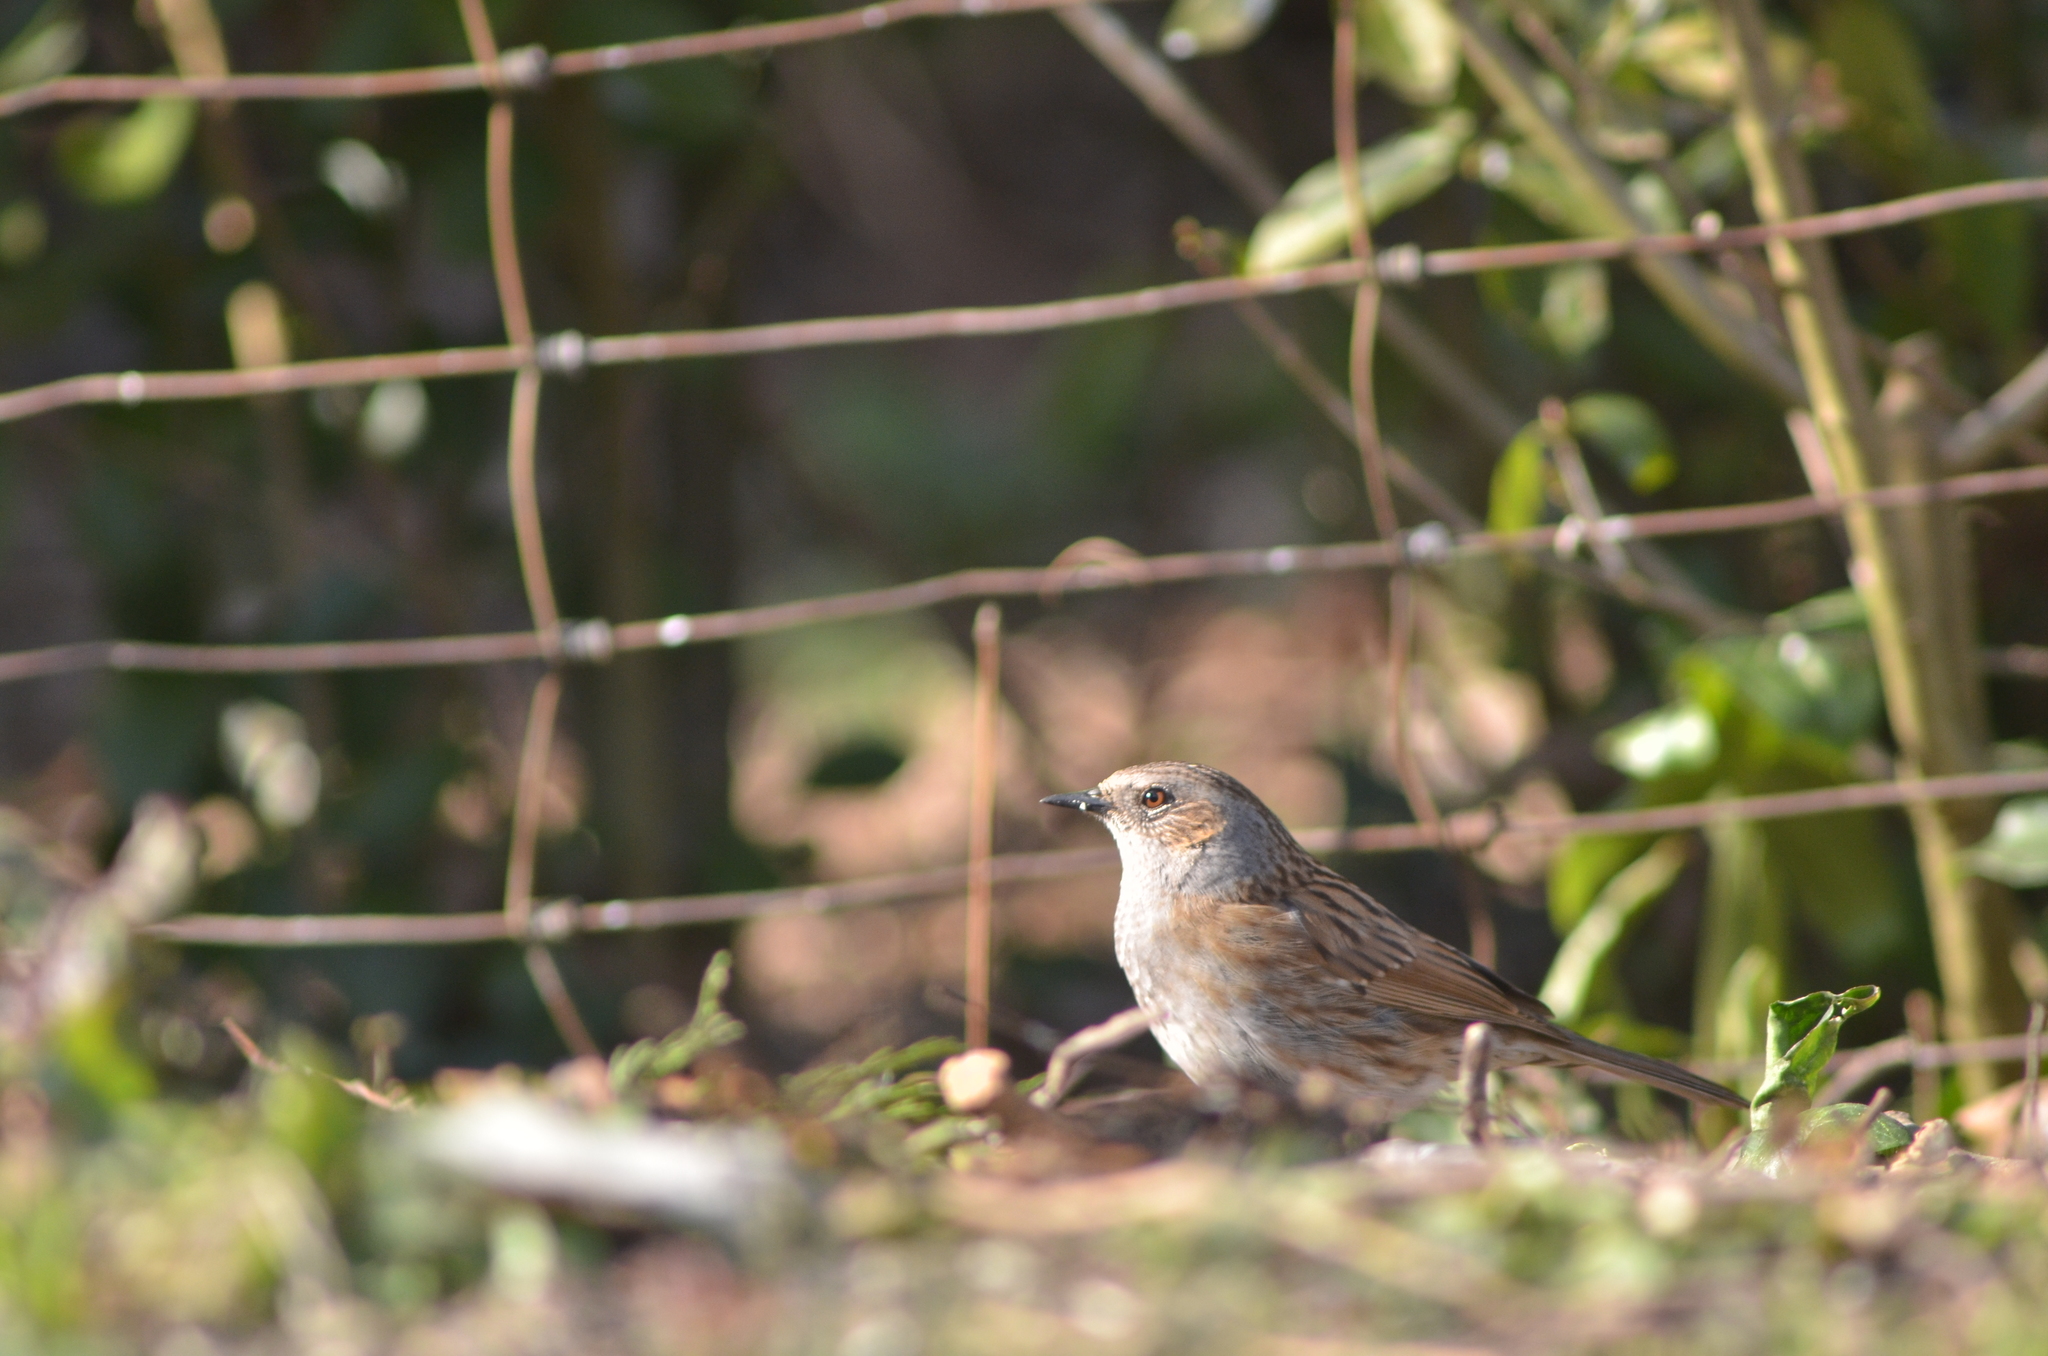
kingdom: Animalia
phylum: Chordata
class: Aves
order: Passeriformes
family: Prunellidae
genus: Prunella
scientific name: Prunella modularis
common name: Dunnock
